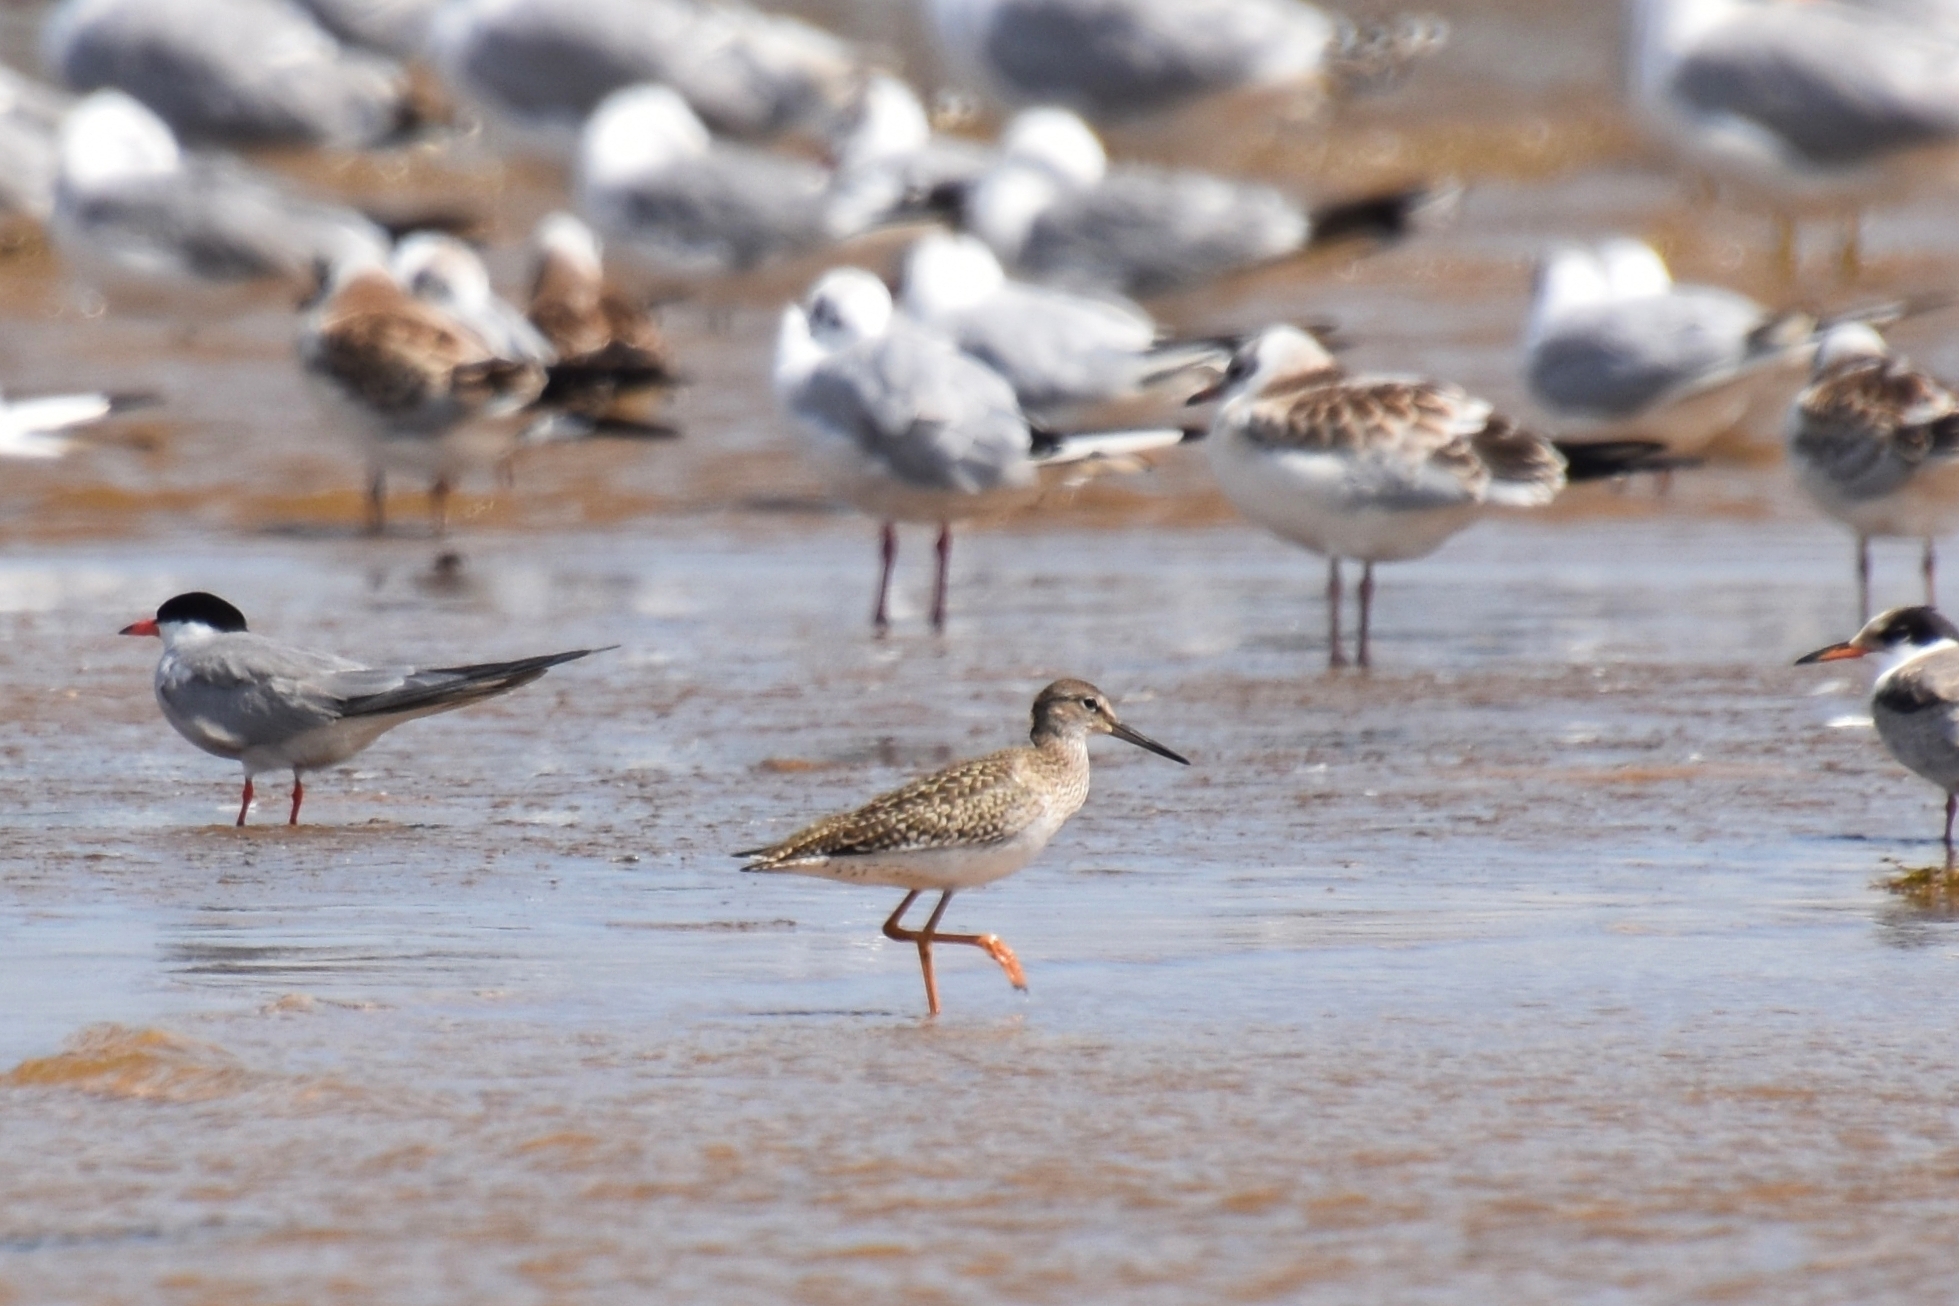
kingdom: Animalia
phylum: Chordata
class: Aves
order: Charadriiformes
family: Scolopacidae
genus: Tringa
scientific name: Tringa totanus
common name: Common redshank
